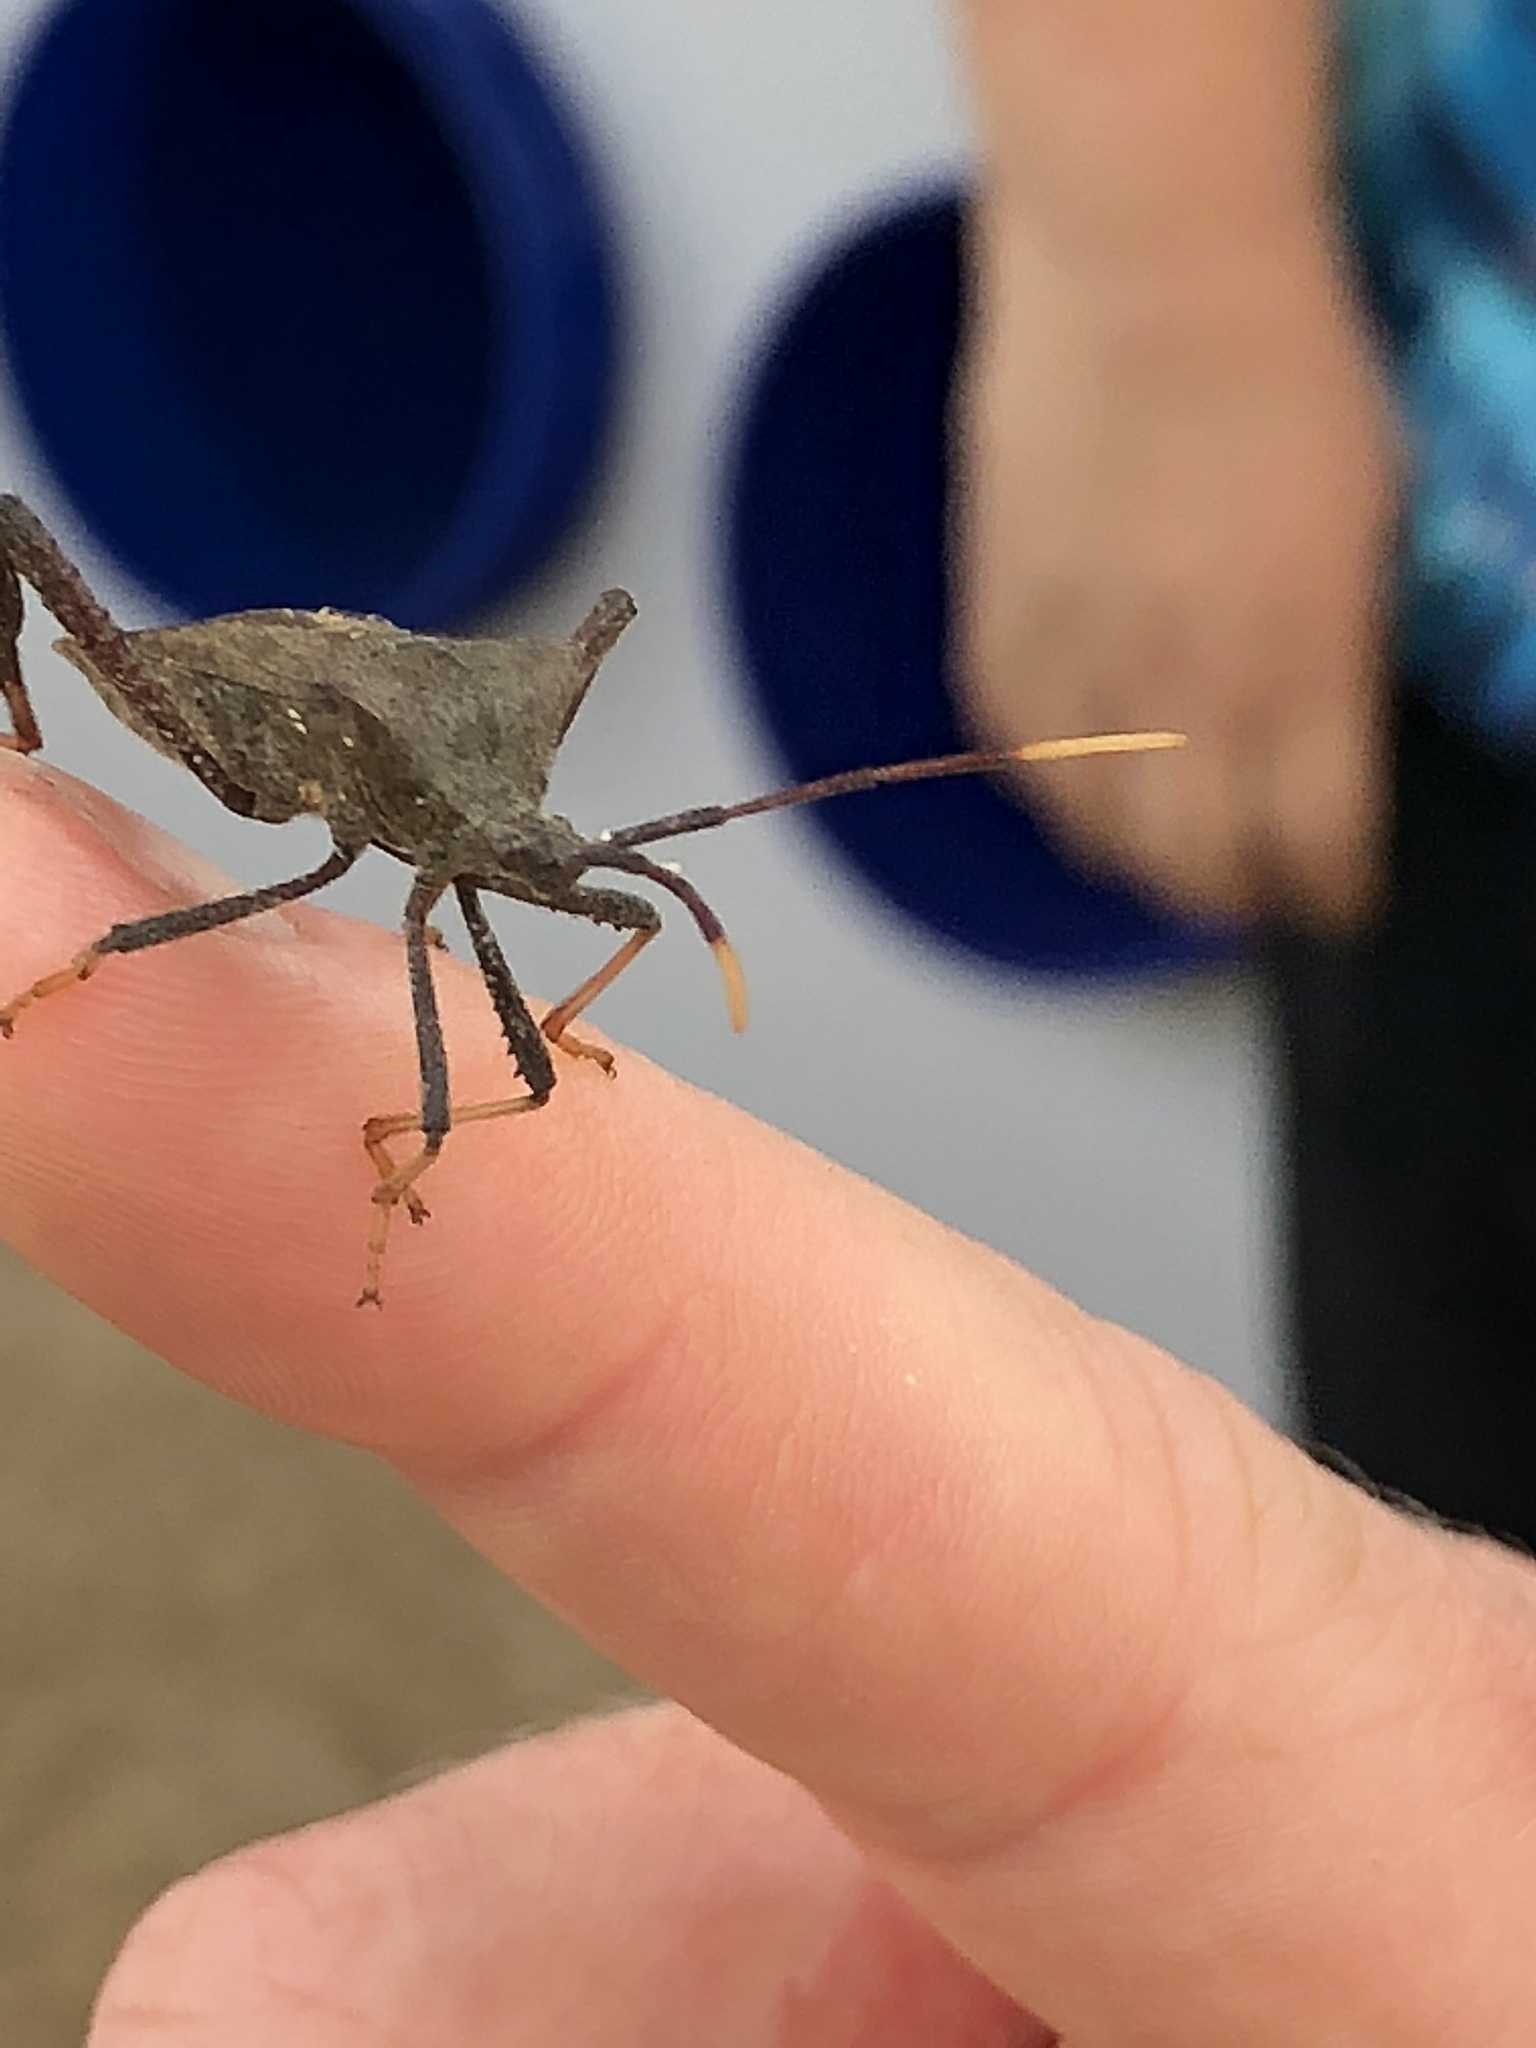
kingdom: Animalia
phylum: Arthropoda
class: Insecta
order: Hemiptera
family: Coreidae
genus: Acanthocephala
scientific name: Acanthocephala terminalis
